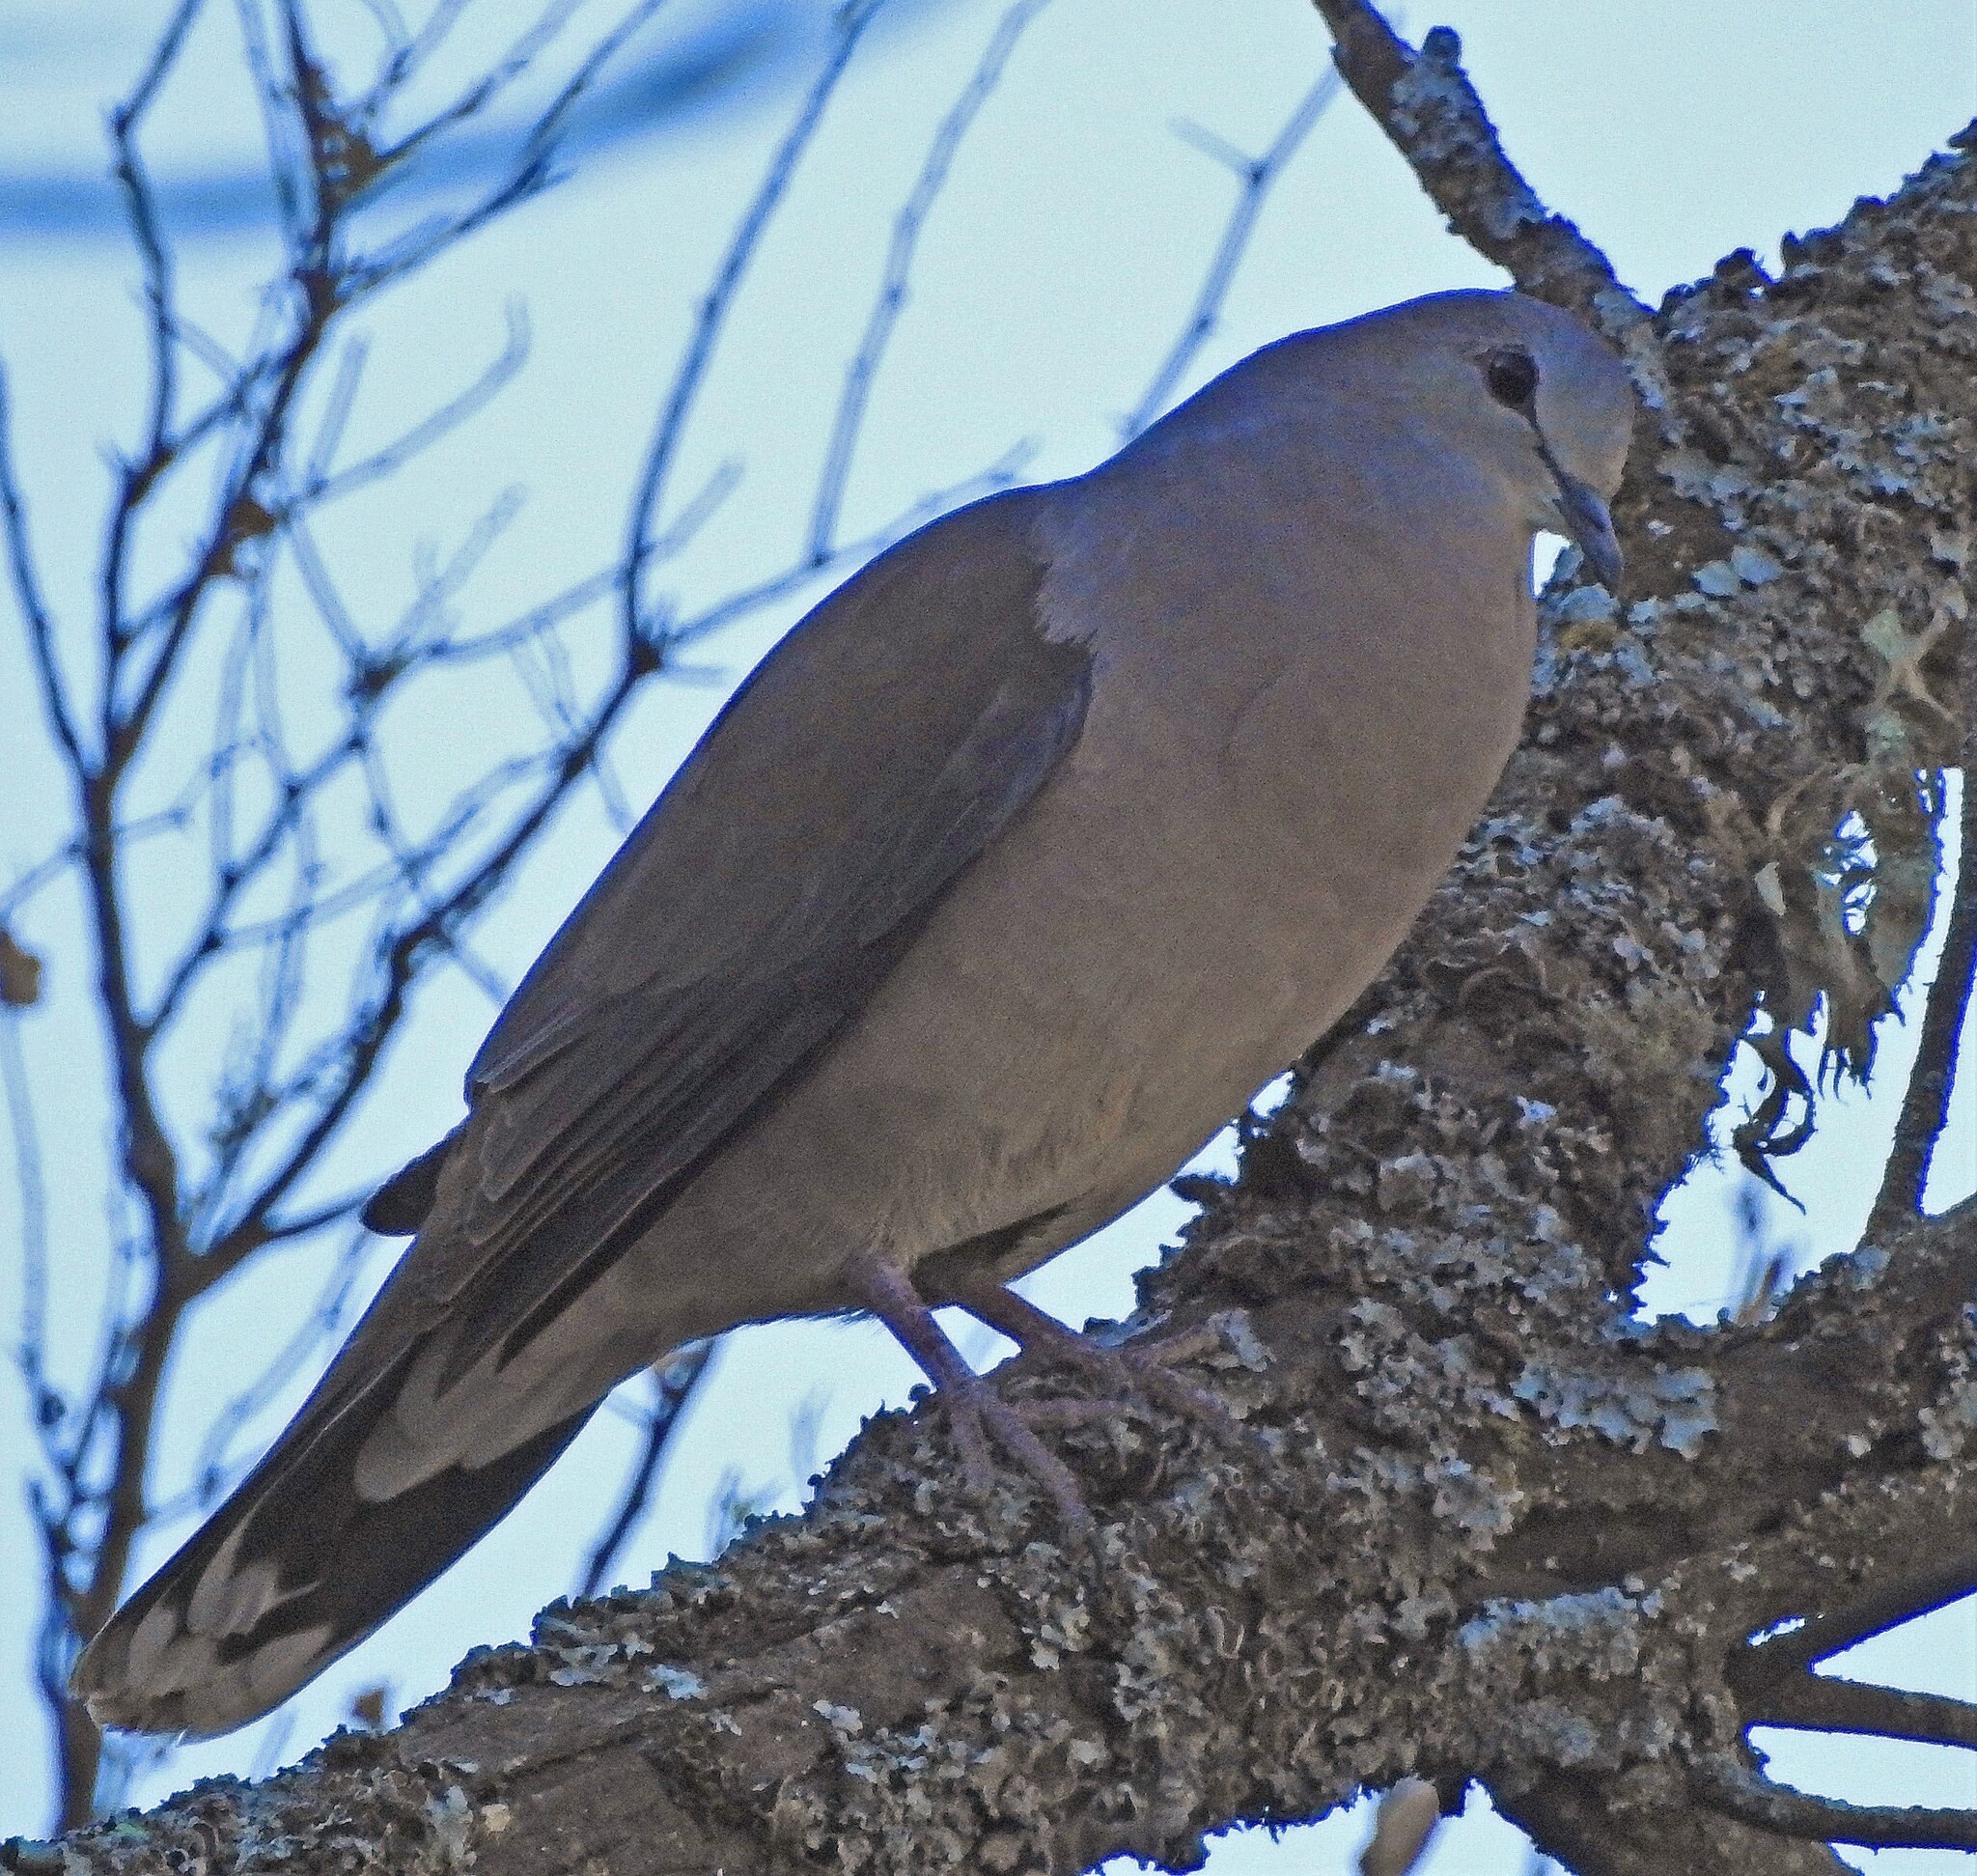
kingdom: Animalia
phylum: Chordata
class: Aves
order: Columbiformes
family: Columbidae
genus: Leptotila
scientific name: Leptotila megalura
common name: Yungas dove
